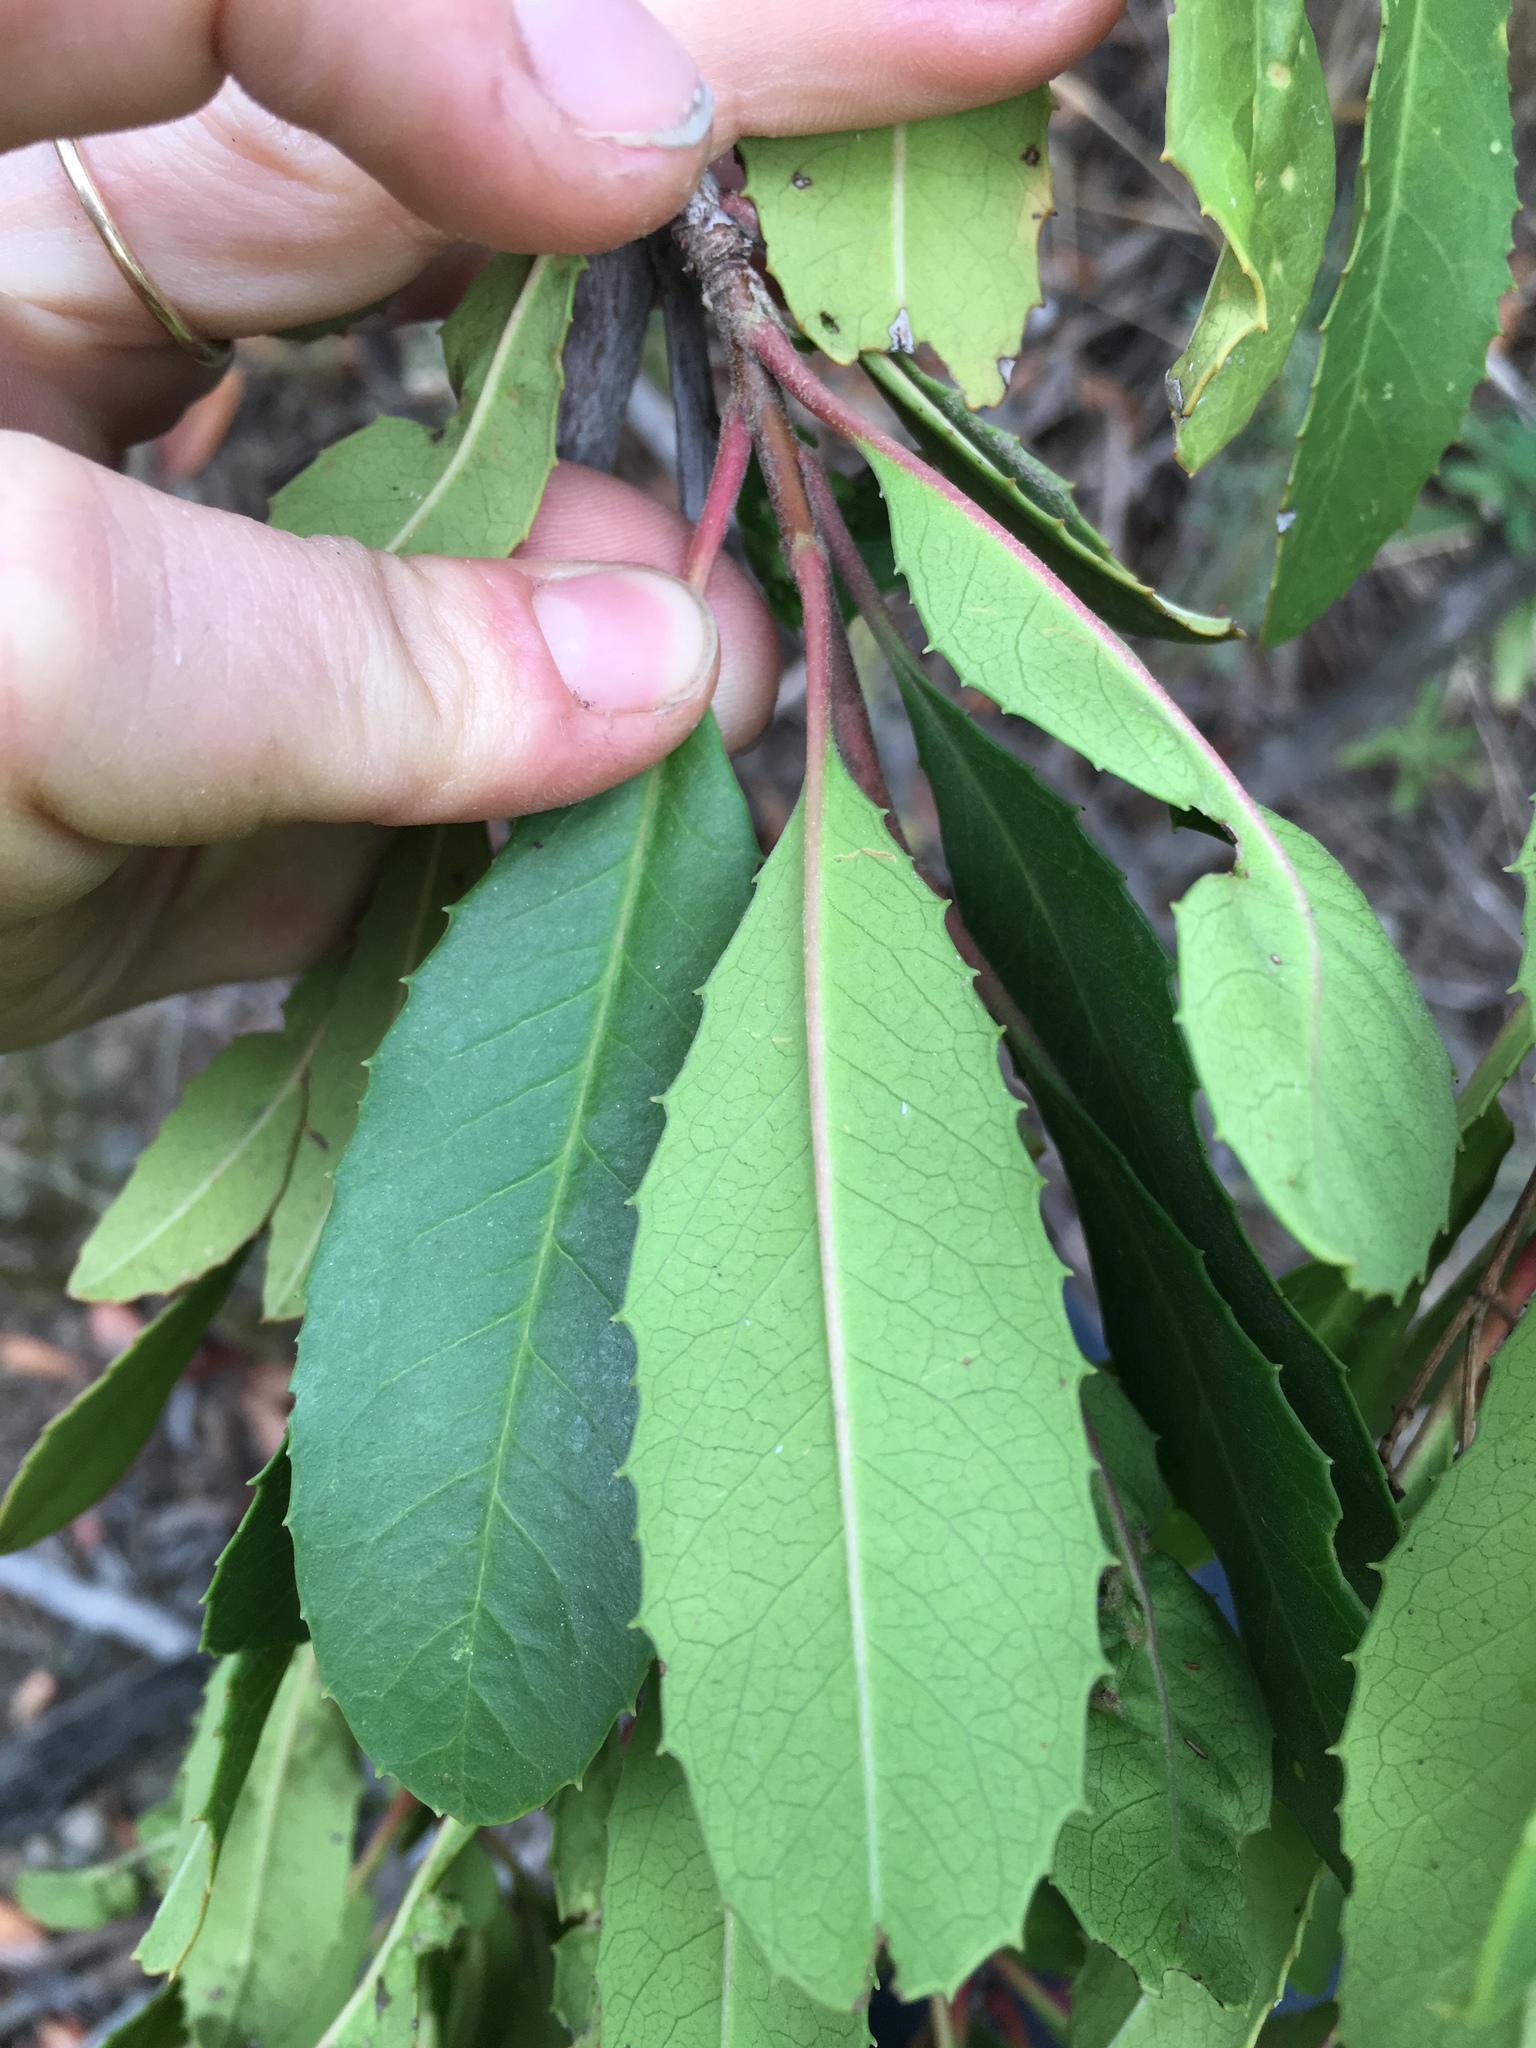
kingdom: Plantae
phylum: Tracheophyta
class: Magnoliopsida
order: Rosales
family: Rosaceae
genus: Heteromeles
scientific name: Heteromeles arbutifolia
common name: California-holly
